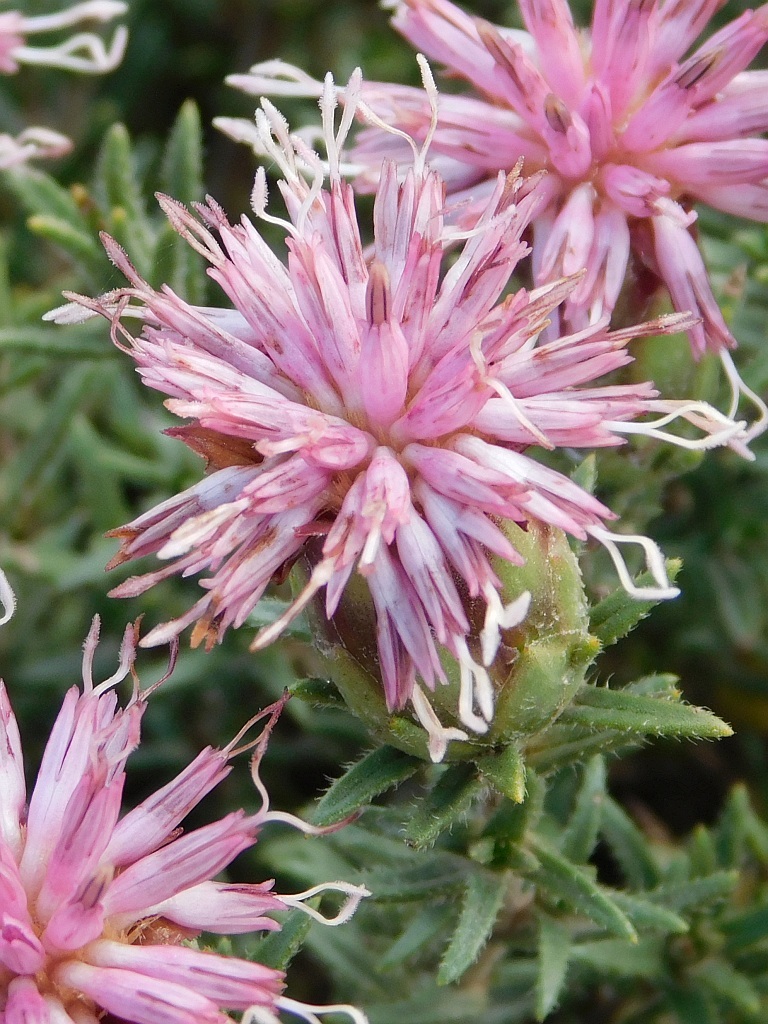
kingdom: Plantae
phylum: Tracheophyta
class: Magnoliopsida
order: Asterales
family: Asteraceae
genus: Pteronia
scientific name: Pteronia hirsuta
